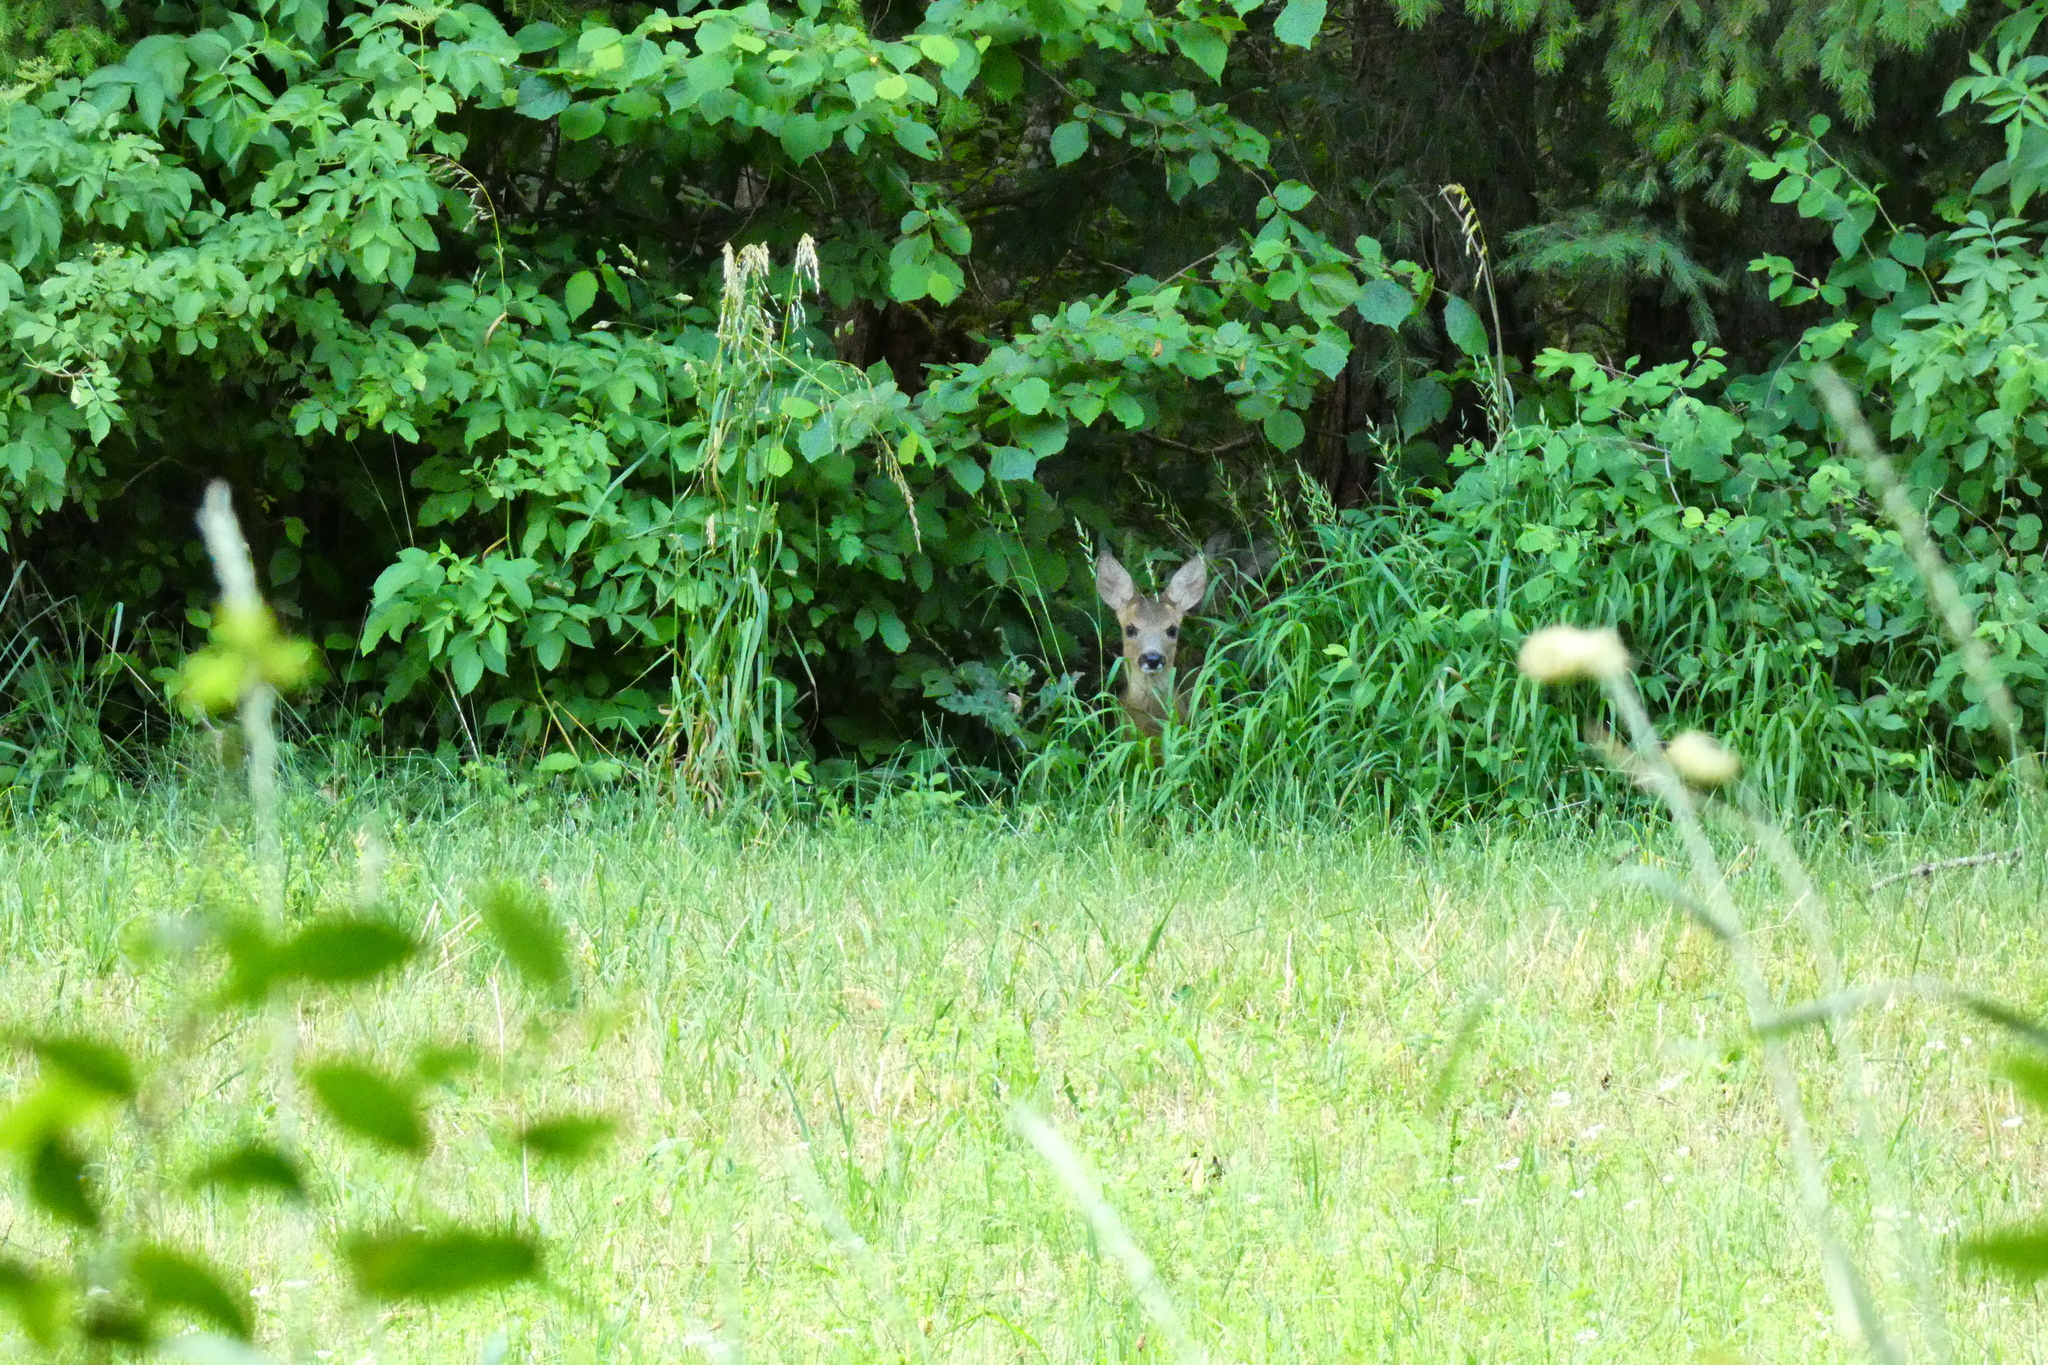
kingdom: Animalia
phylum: Chordata
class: Mammalia
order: Artiodactyla
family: Cervidae
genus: Capreolus
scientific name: Capreolus capreolus
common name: Western roe deer
